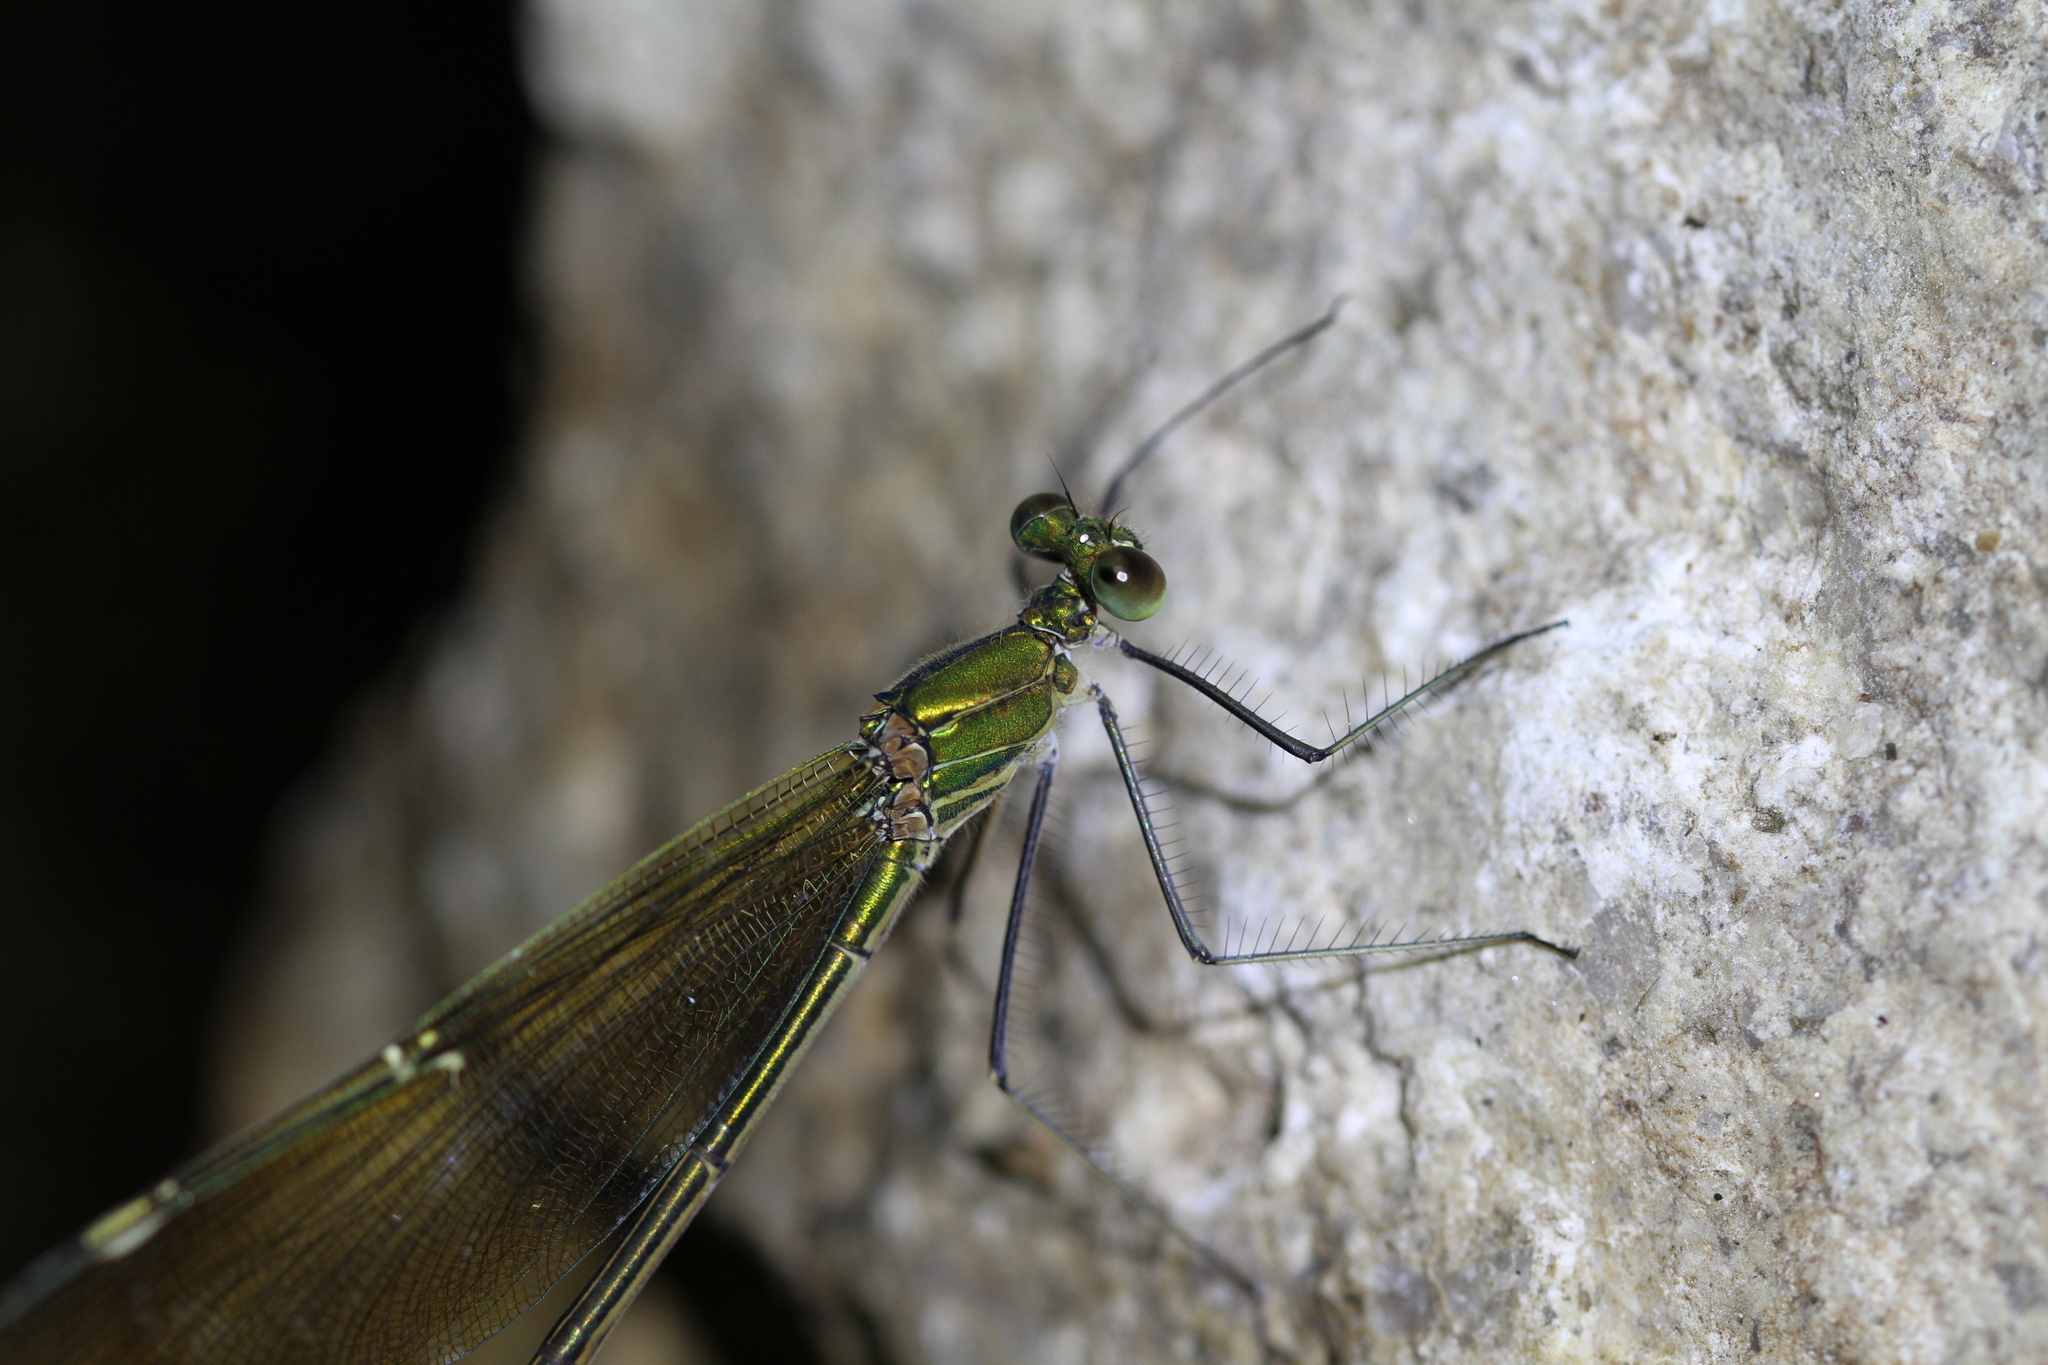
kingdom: Animalia
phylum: Arthropoda
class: Insecta
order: Odonata
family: Calopterygidae
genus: Neurobasis
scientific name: Neurobasis chinensis
